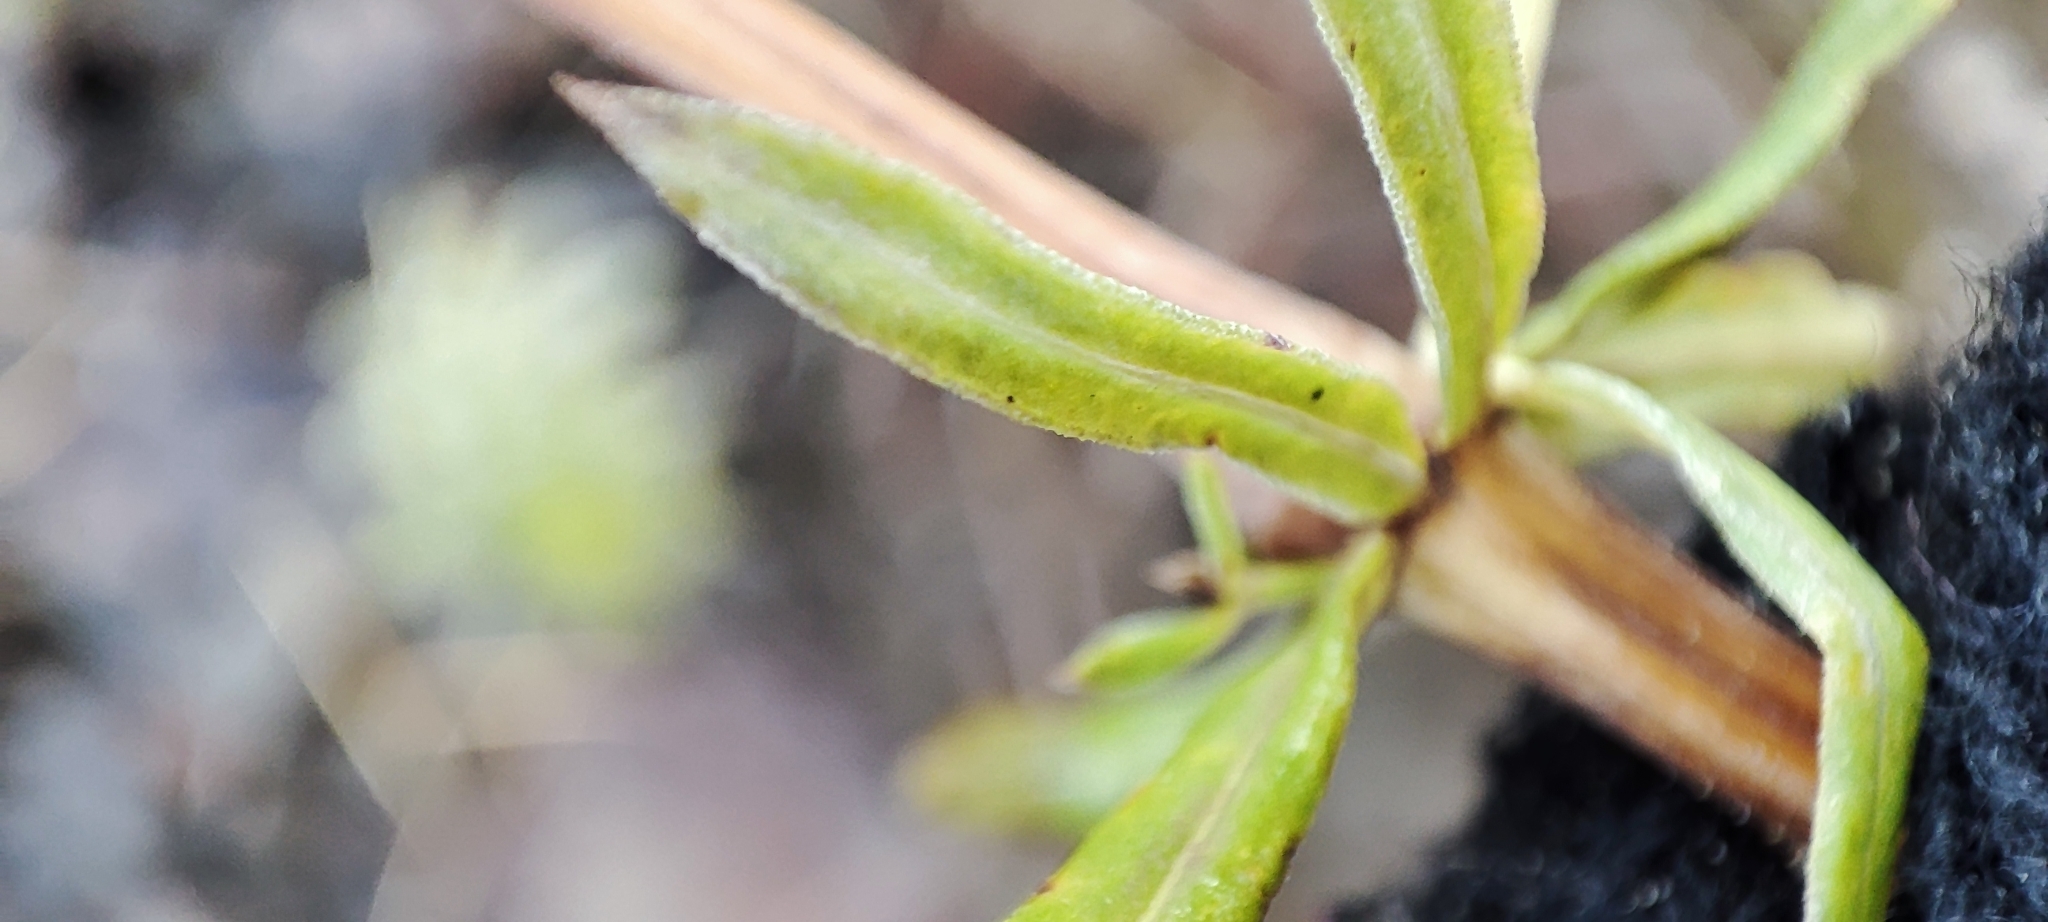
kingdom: Plantae
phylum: Tracheophyta
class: Magnoliopsida
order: Gentianales
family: Rubiaceae
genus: Galium
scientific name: Galium mollugo
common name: Hedge bedstraw
